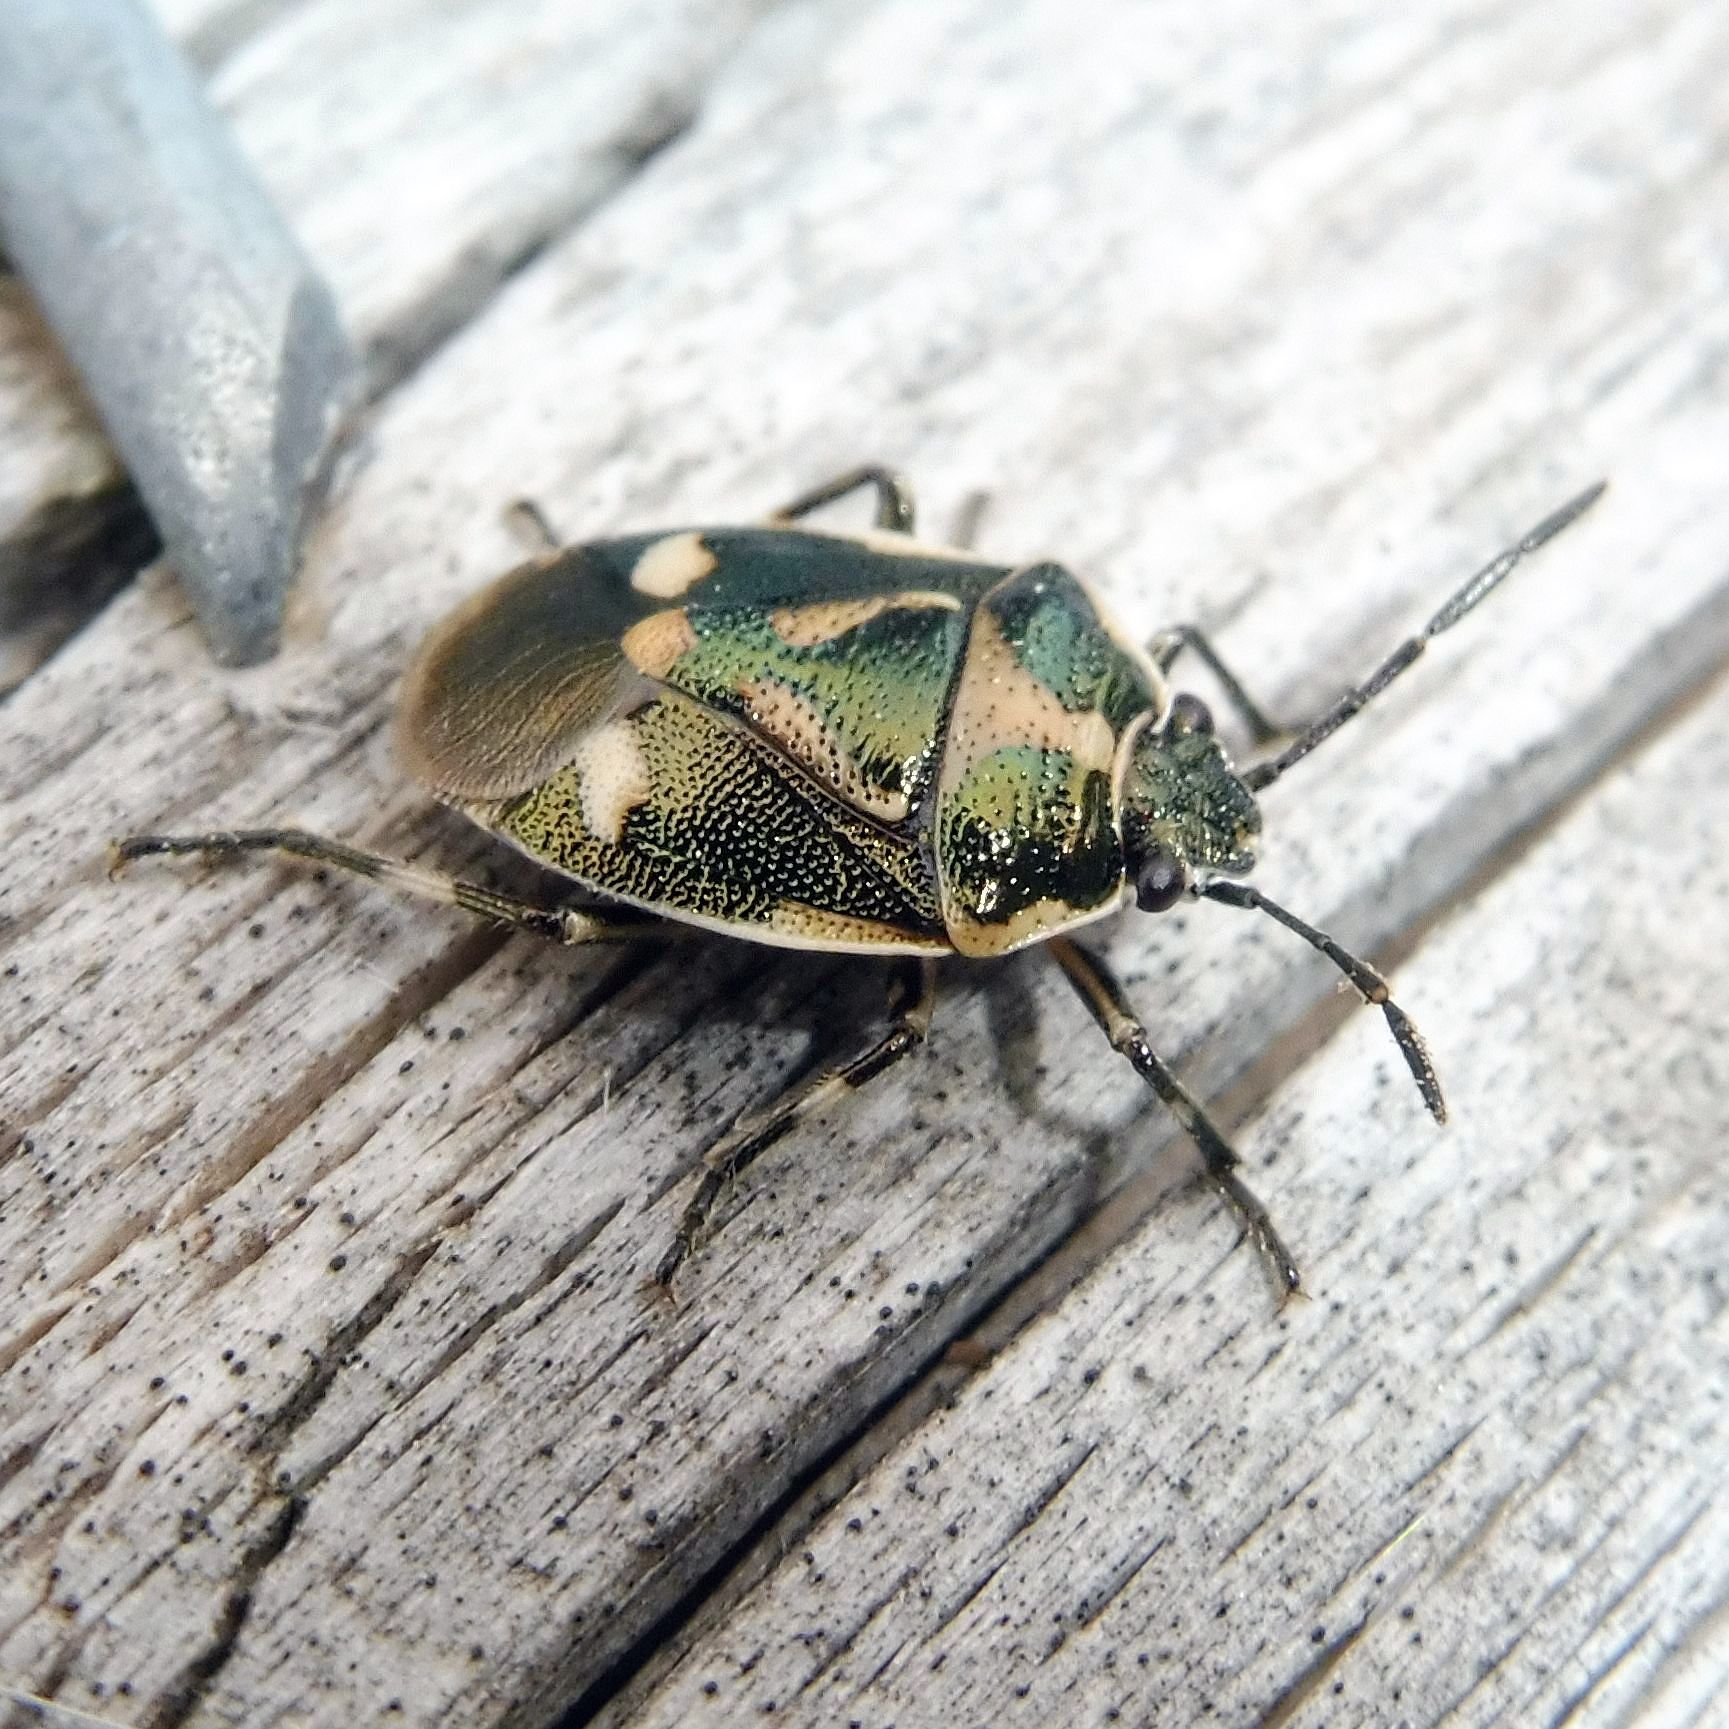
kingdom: Animalia
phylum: Arthropoda
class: Insecta
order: Hemiptera
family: Pentatomidae
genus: Eurydema
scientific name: Eurydema oleracea
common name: Cabbage bug
